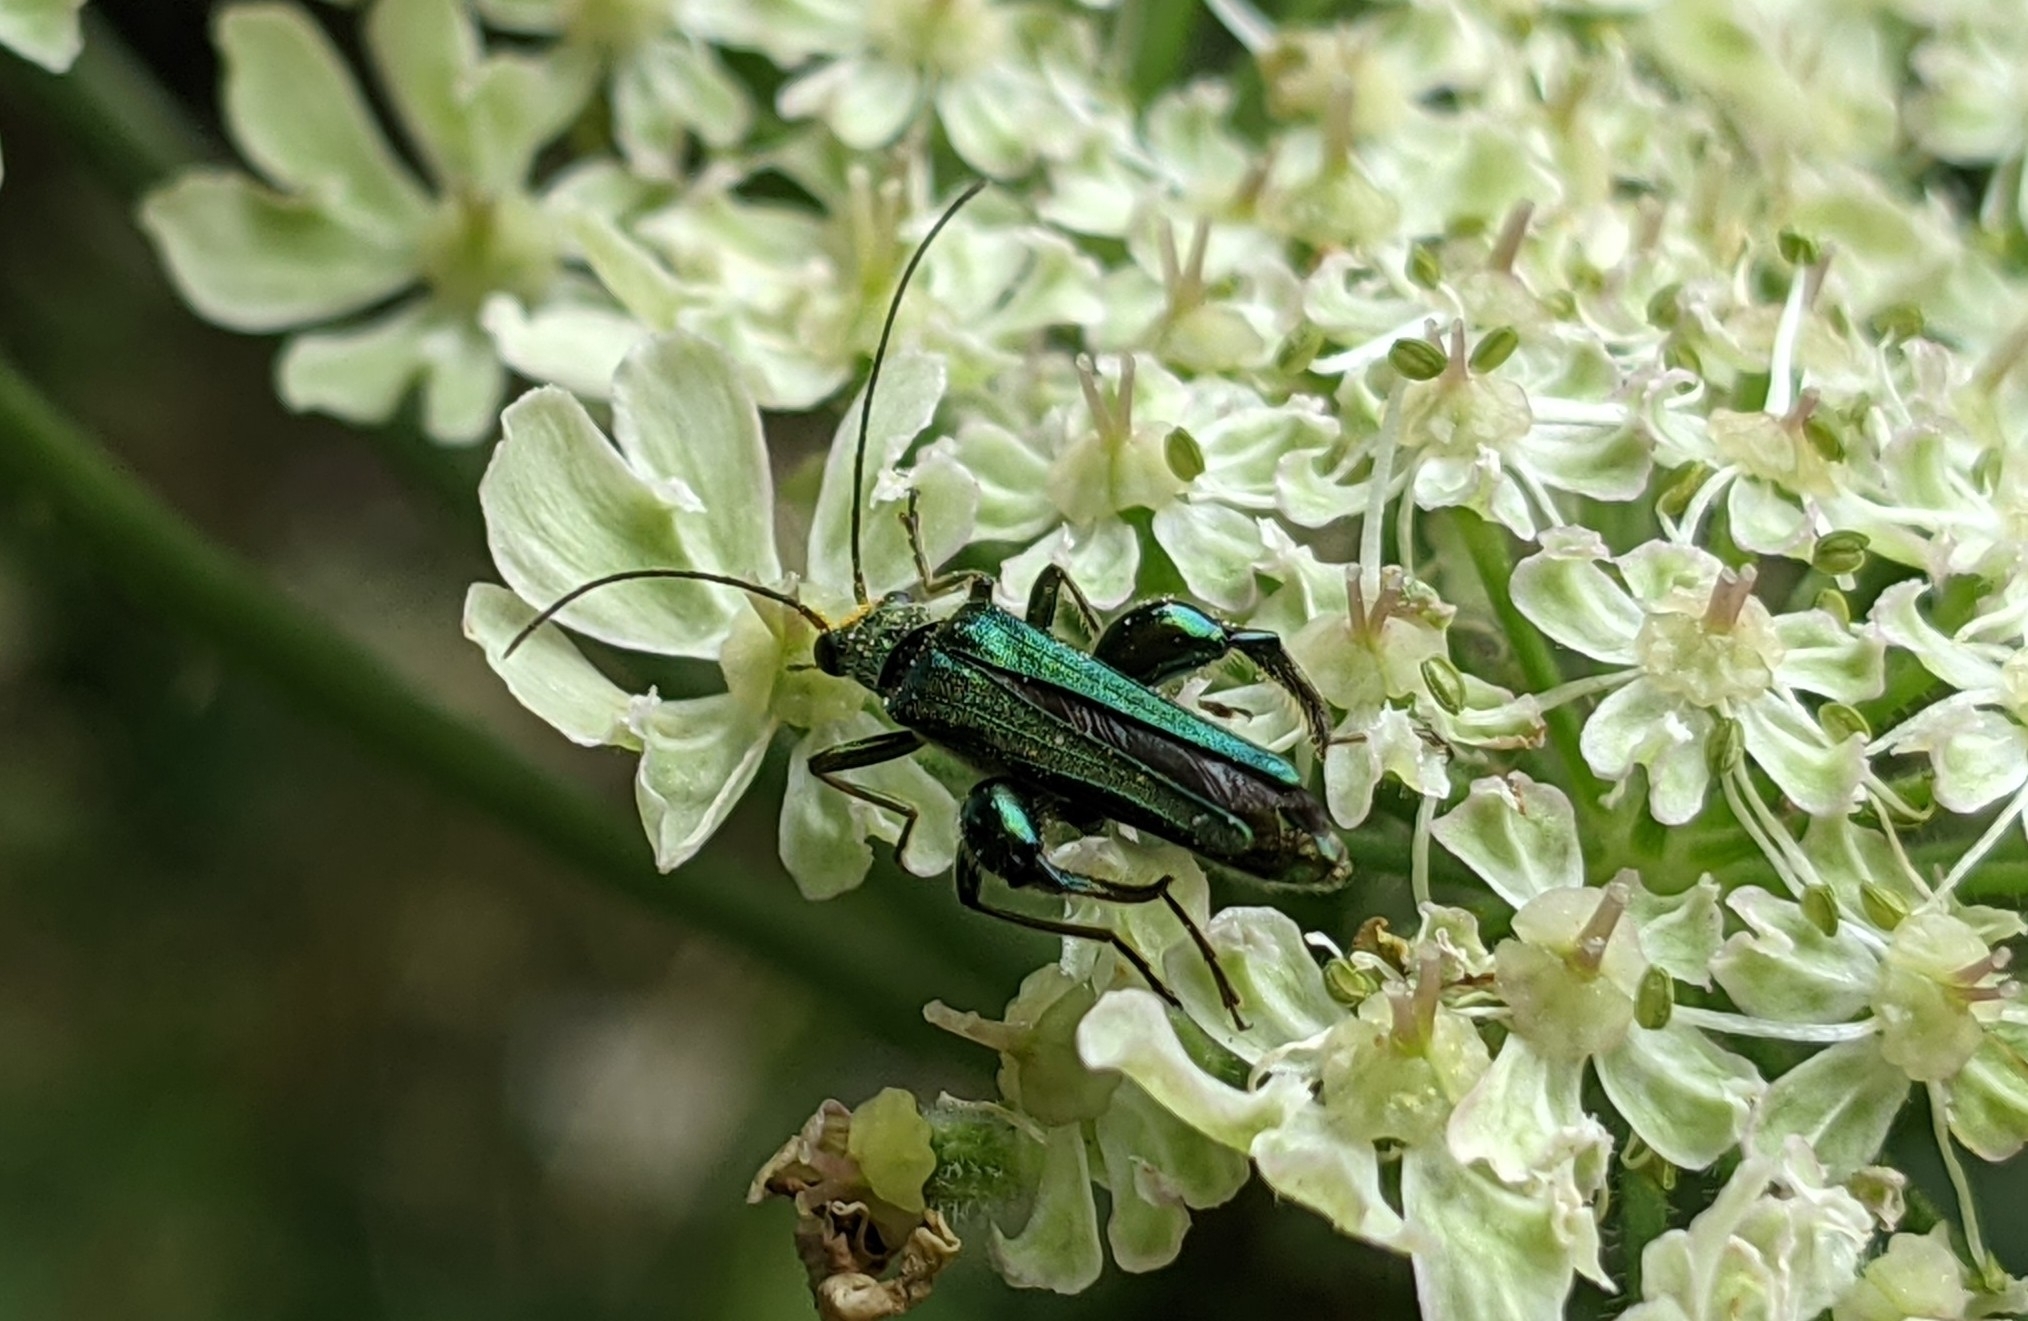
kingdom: Animalia
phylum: Arthropoda
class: Insecta
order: Coleoptera
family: Oedemeridae
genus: Oedemera
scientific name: Oedemera nobilis
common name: Swollen-thighed beetle
